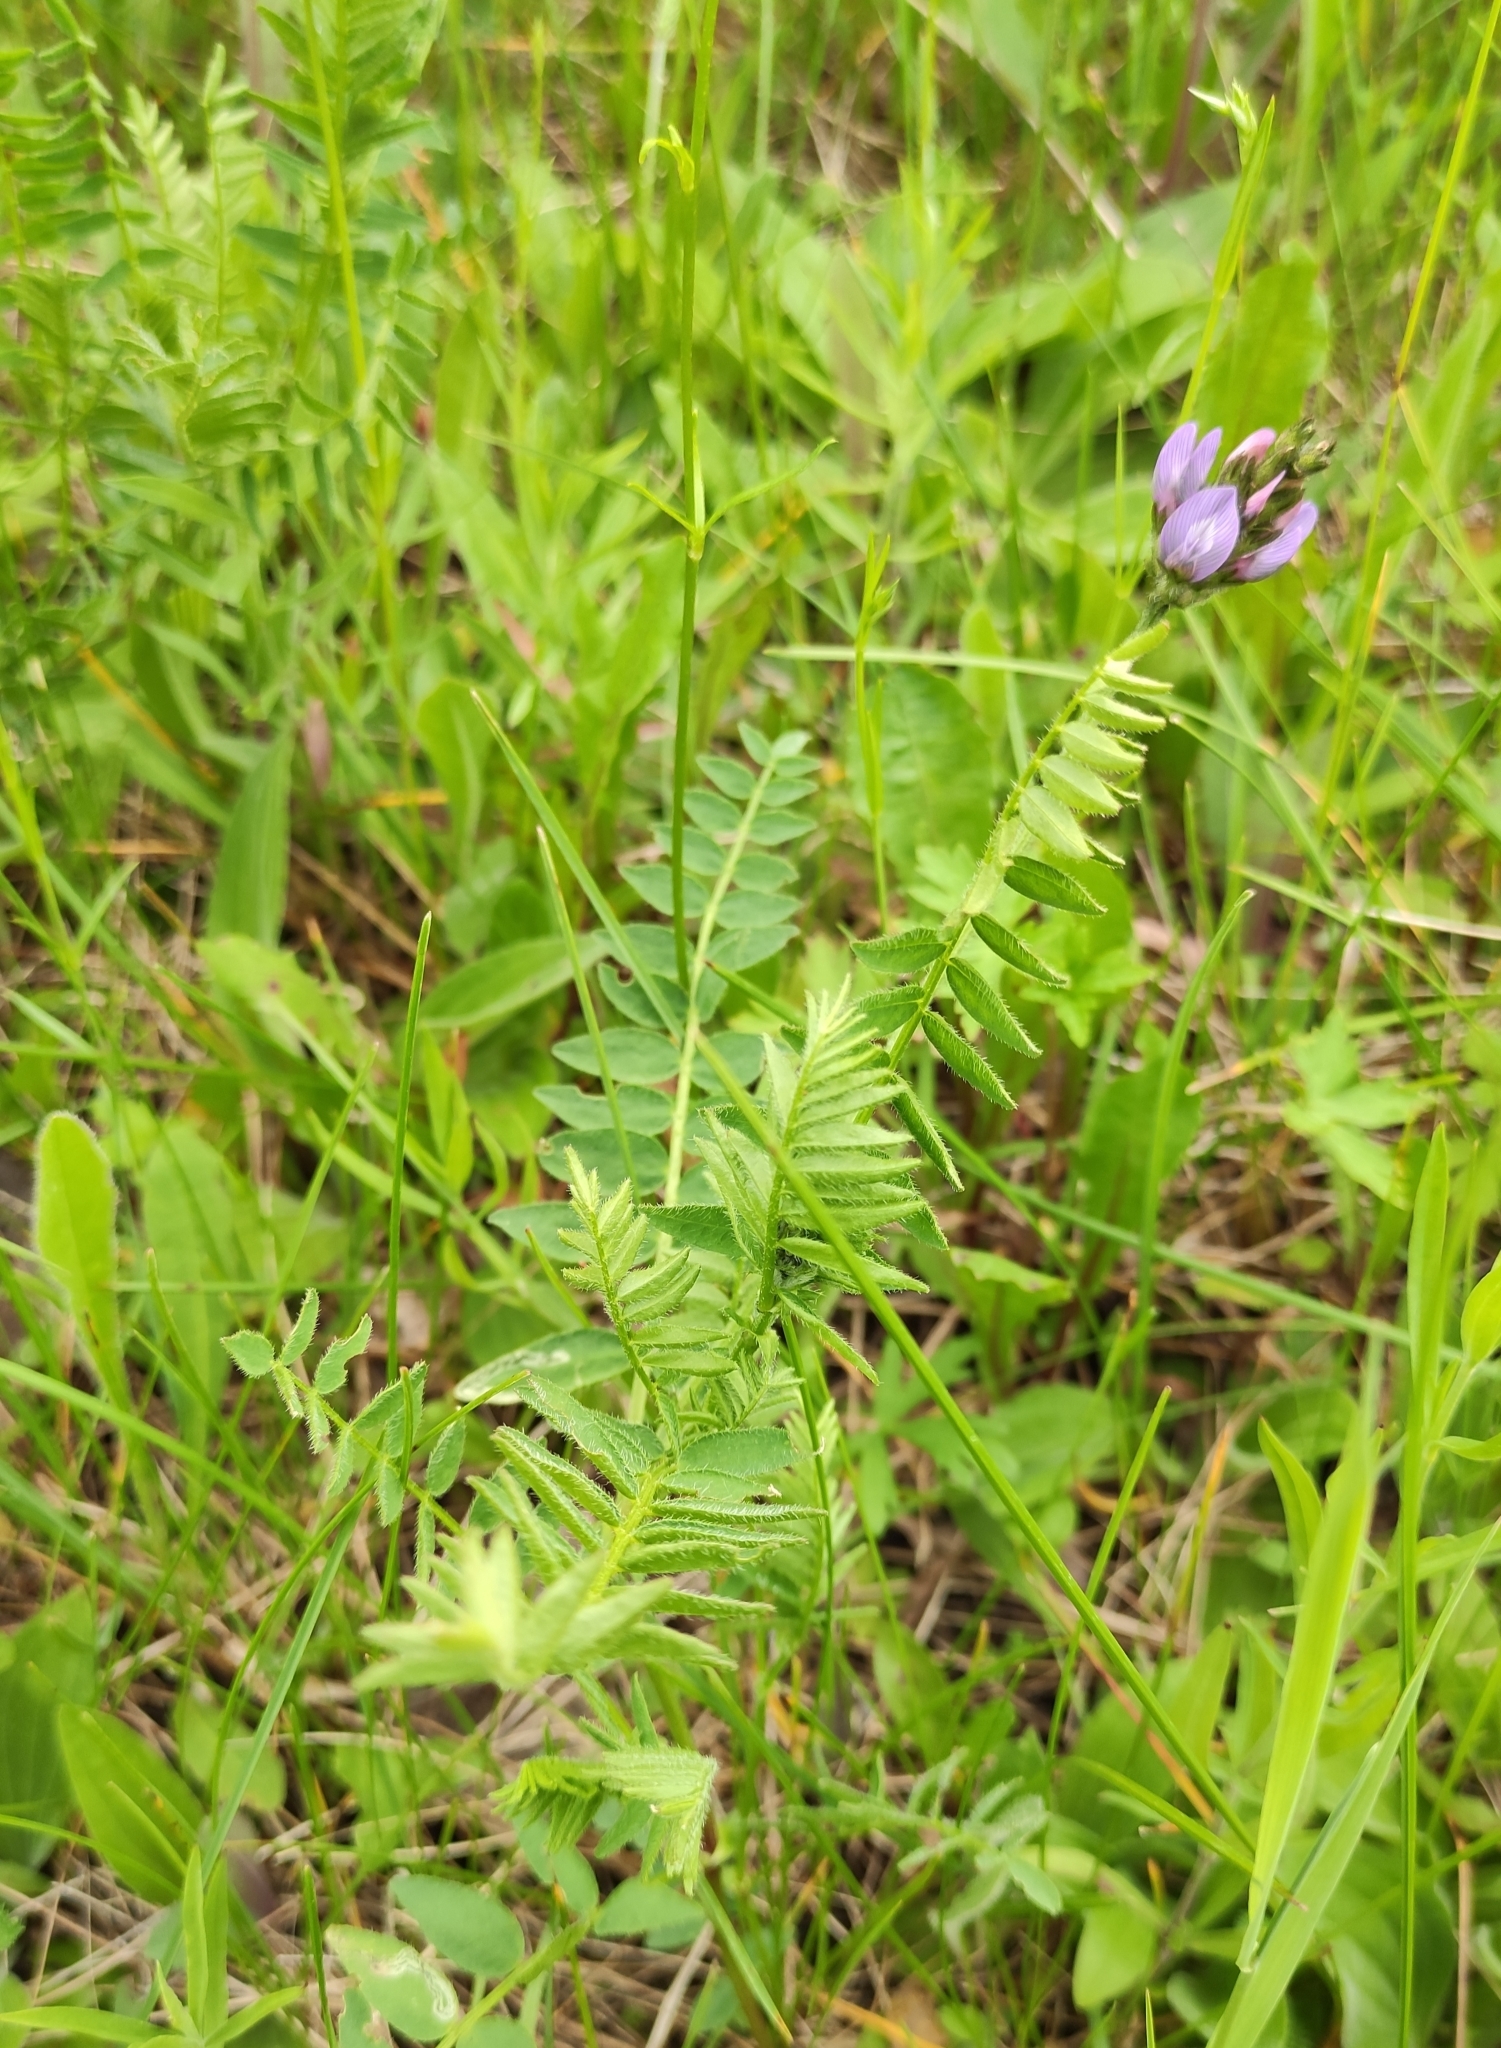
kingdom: Plantae
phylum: Tracheophyta
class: Magnoliopsida
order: Fabales
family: Fabaceae
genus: Astragalus
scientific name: Astragalus danicus
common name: Purple milk-vetch
